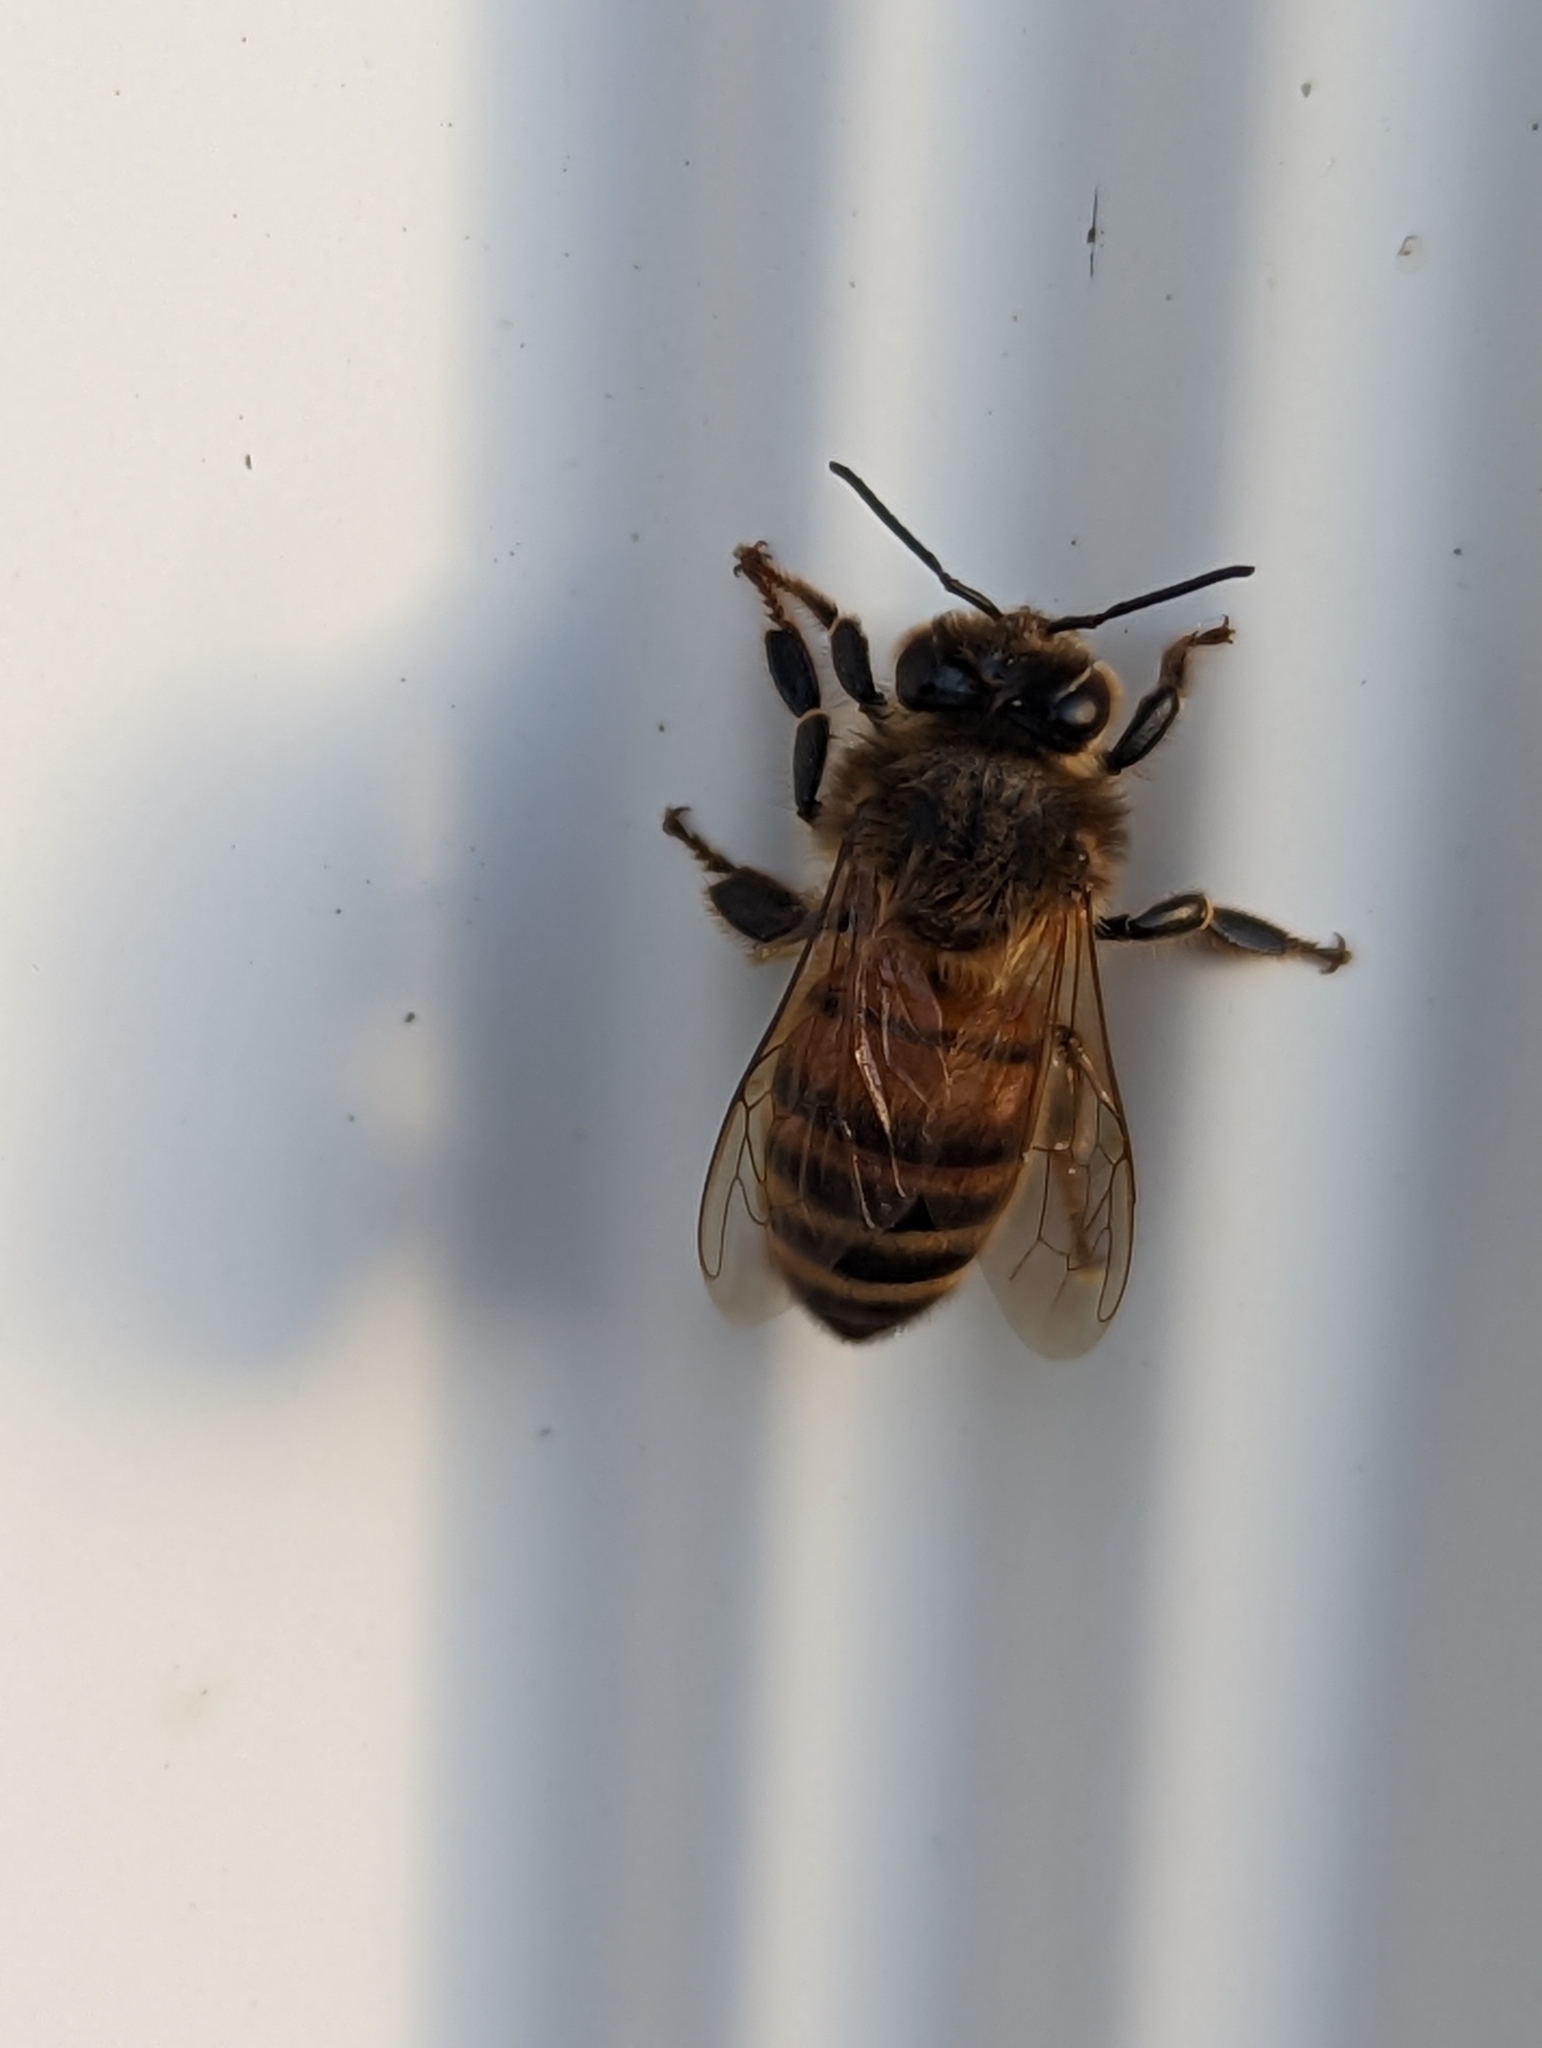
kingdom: Animalia
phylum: Arthropoda
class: Insecta
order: Hymenoptera
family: Apidae
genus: Apis
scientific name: Apis mellifera
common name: Honey bee
